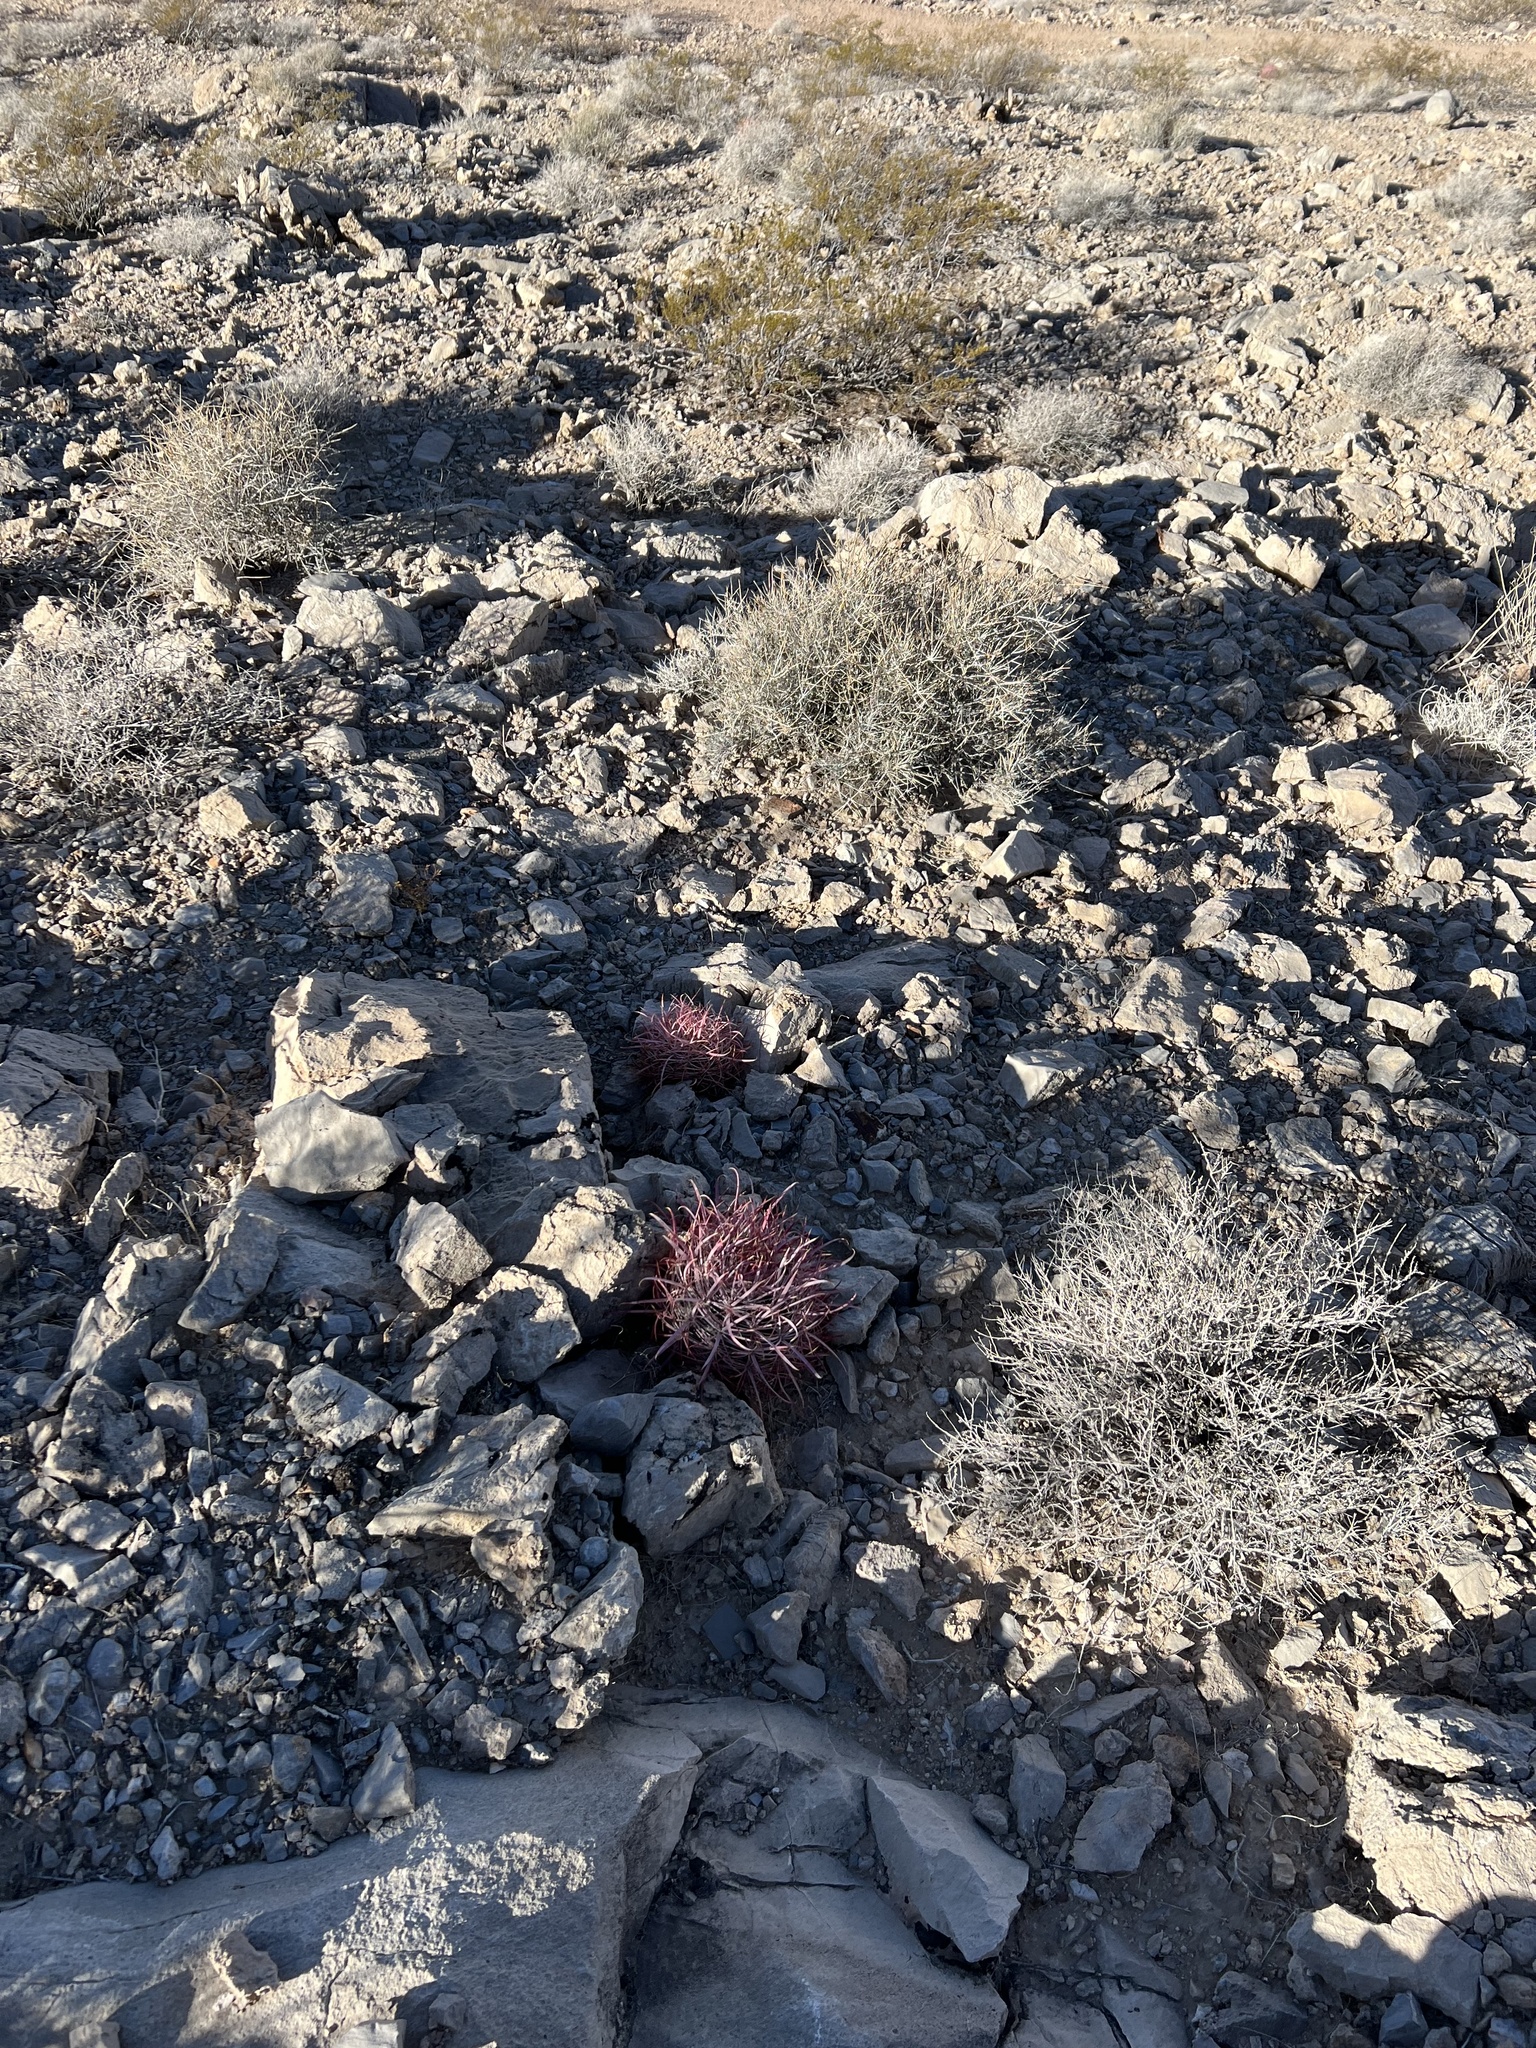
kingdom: Plantae
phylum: Tracheophyta
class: Magnoliopsida
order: Caryophyllales
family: Cactaceae
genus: Ferocactus
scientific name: Ferocactus cylindraceus
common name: California barrel cactus
